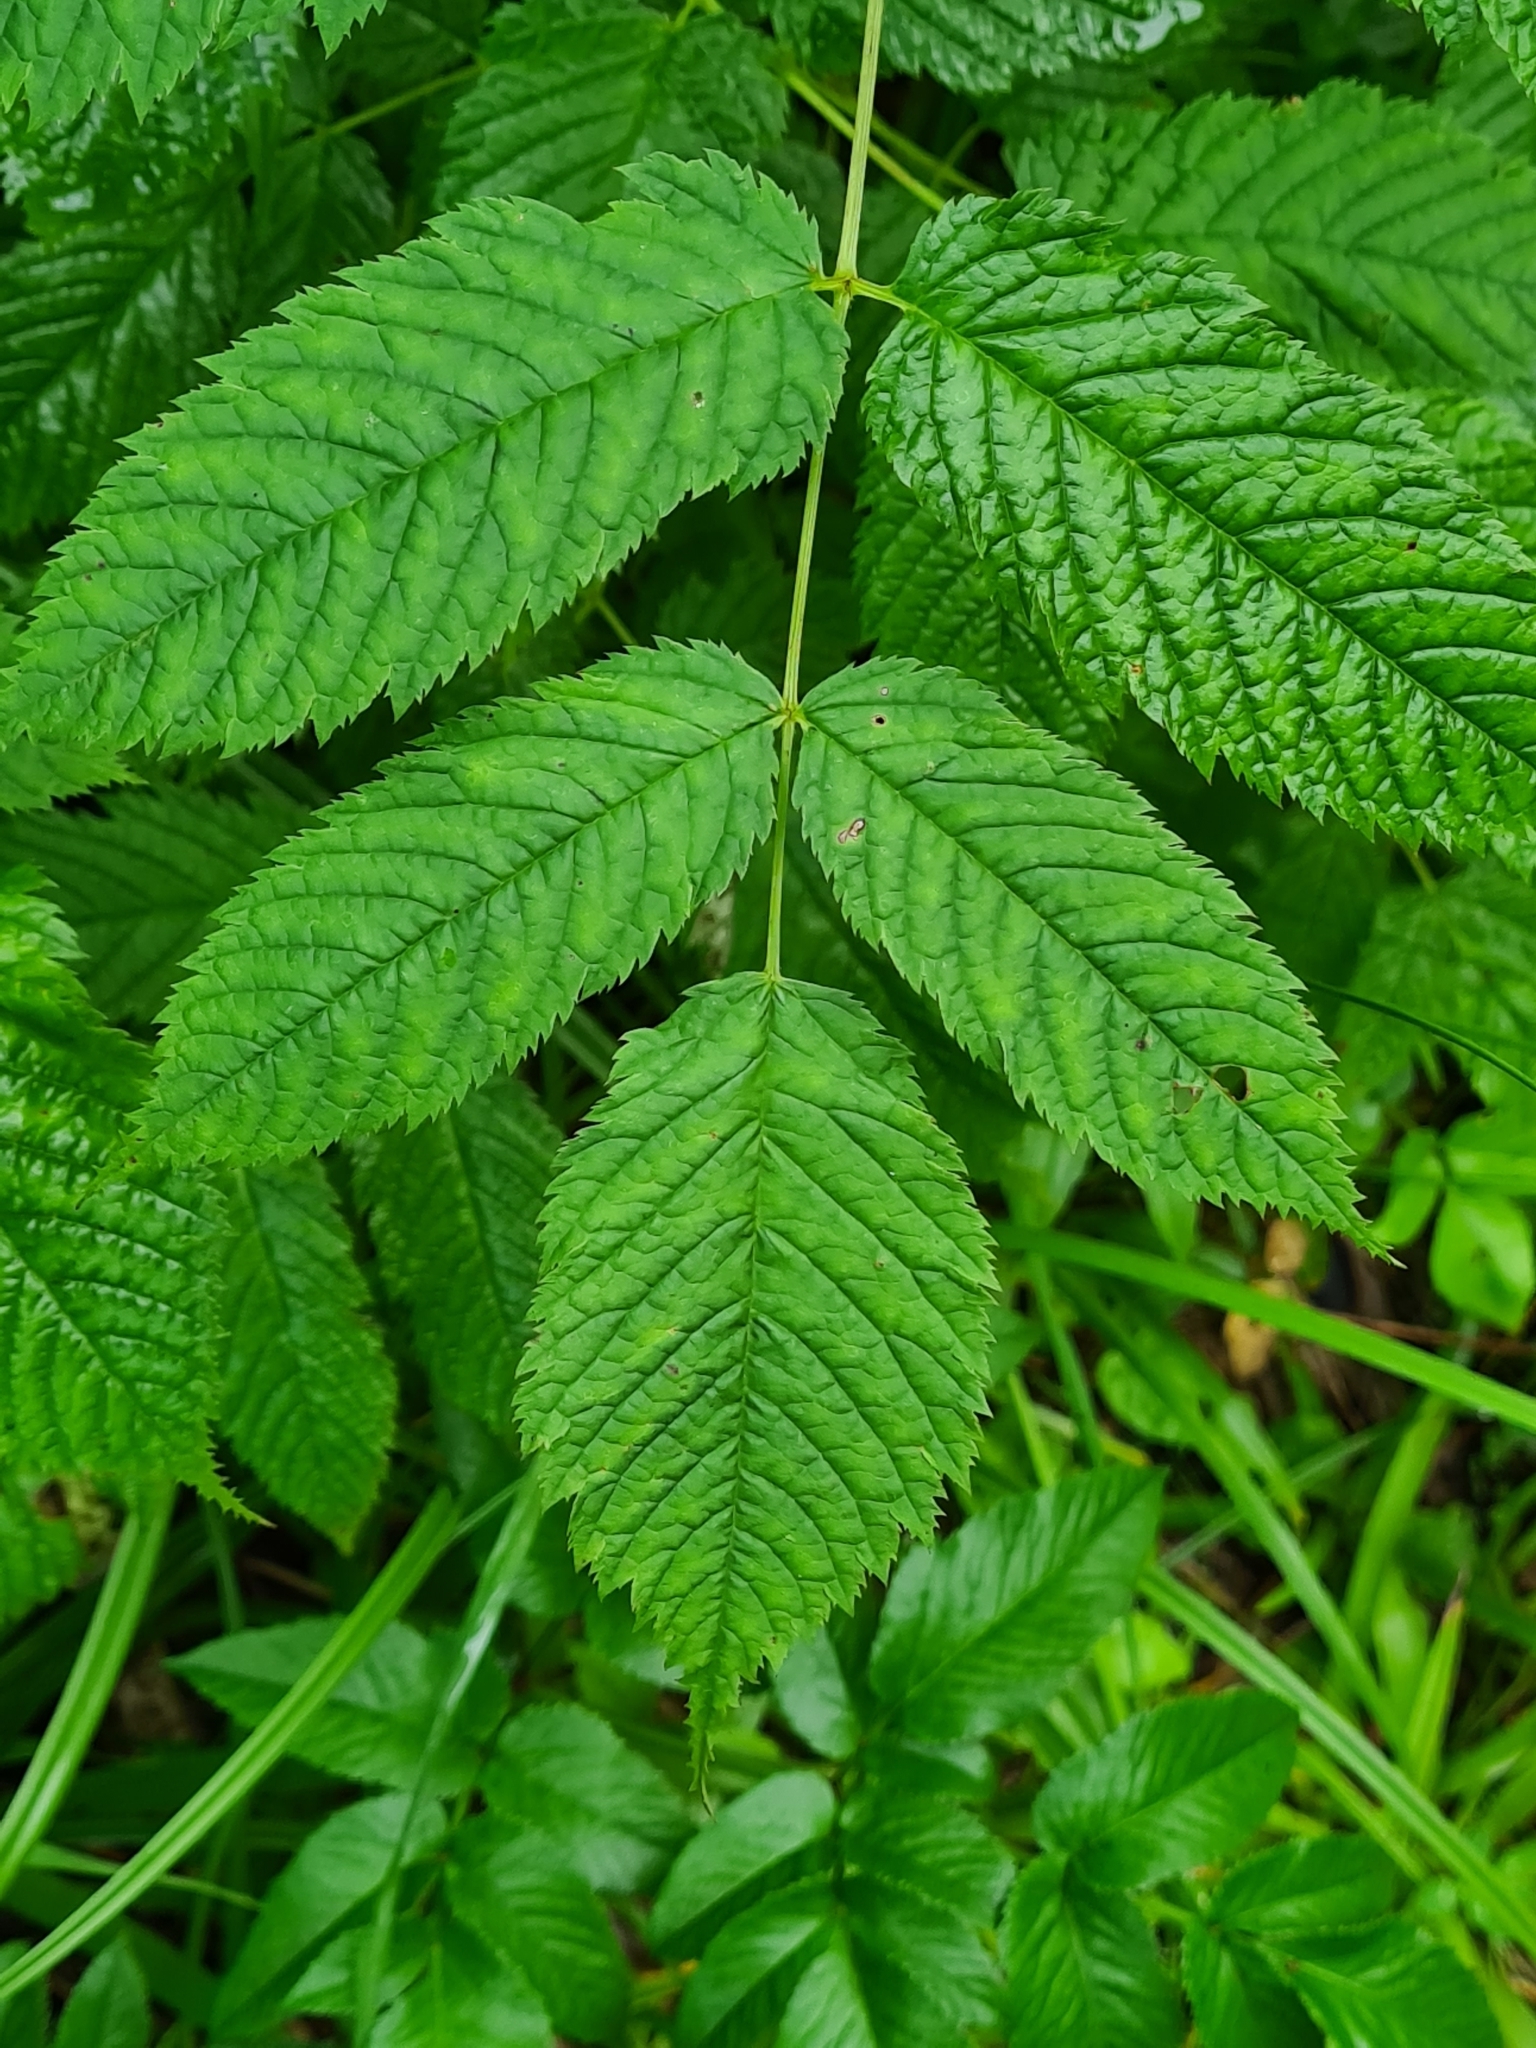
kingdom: Plantae
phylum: Tracheophyta
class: Magnoliopsida
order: Rosales
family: Rosaceae
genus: Aruncus
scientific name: Aruncus dioicus
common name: Buck's-beard
